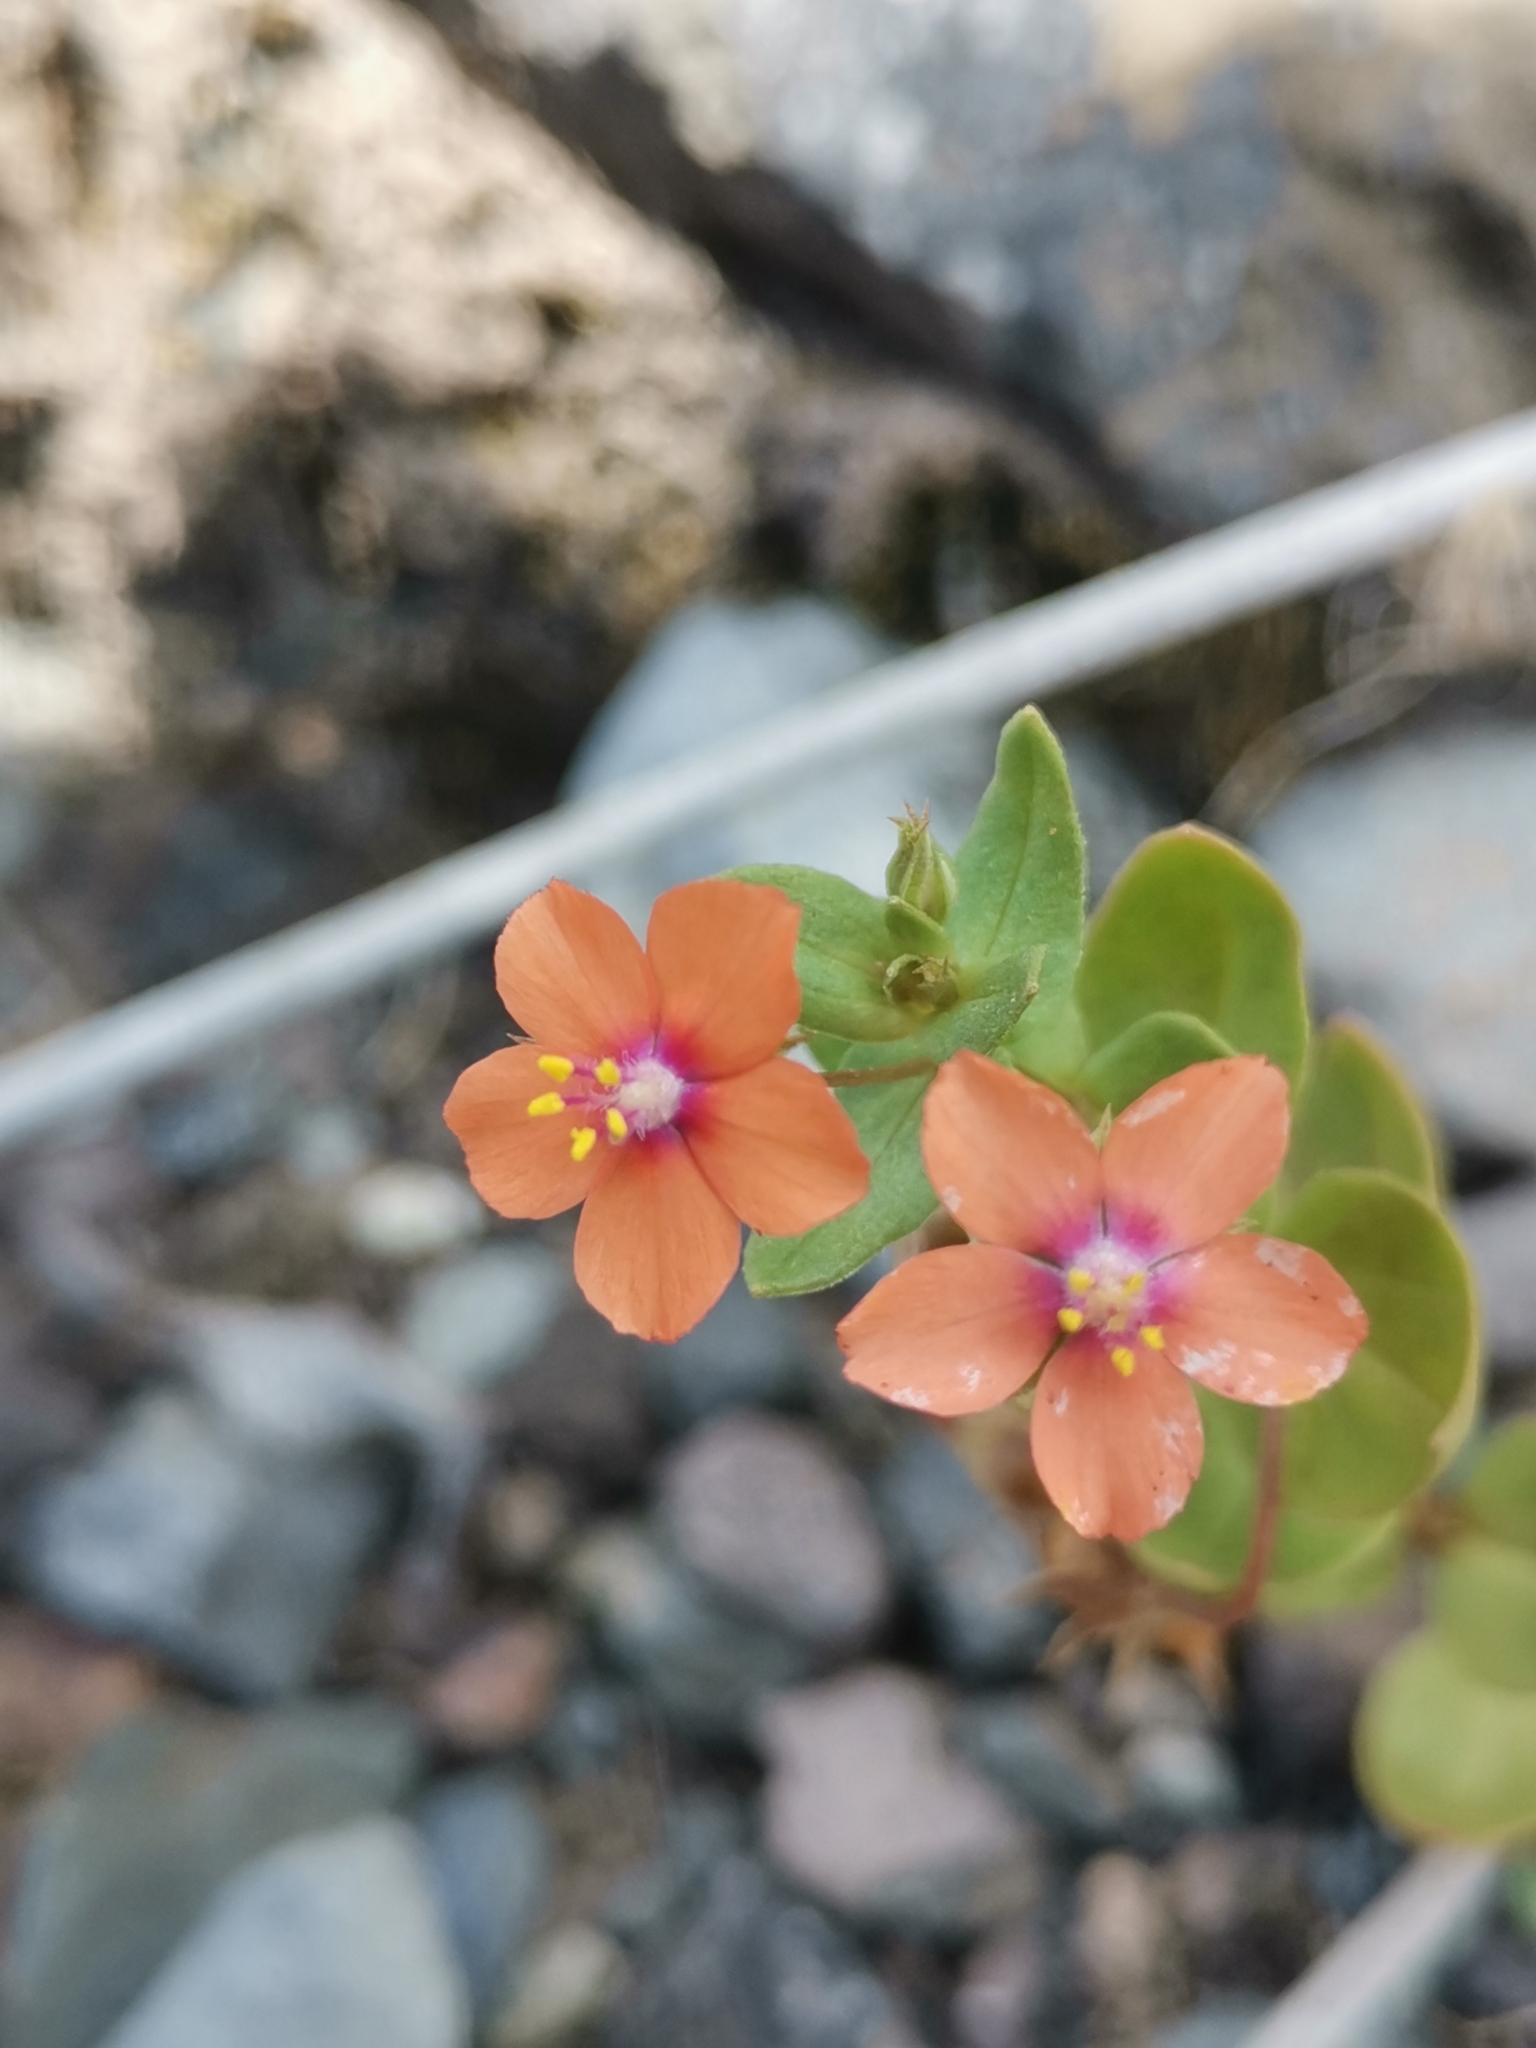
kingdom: Plantae
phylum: Tracheophyta
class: Magnoliopsida
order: Ericales
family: Primulaceae
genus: Lysimachia
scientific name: Lysimachia arvensis
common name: Scarlet pimpernel
